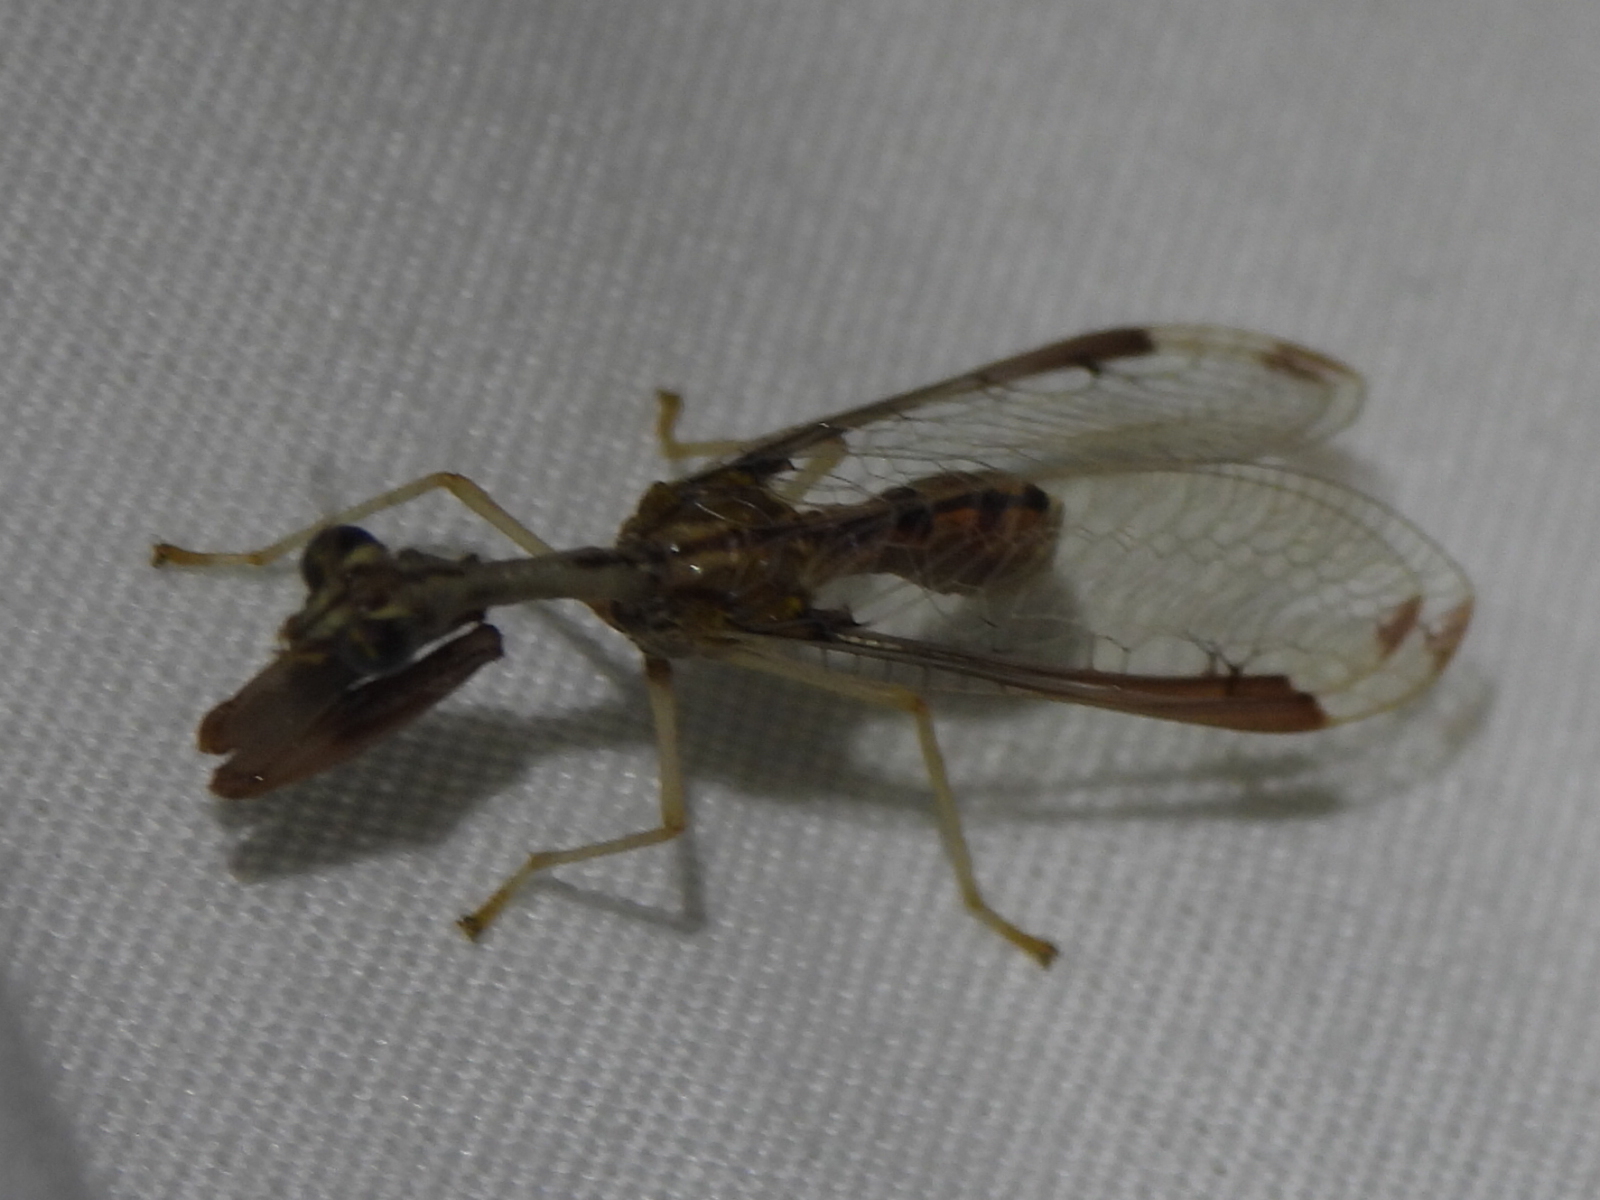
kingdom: Animalia
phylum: Arthropoda
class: Insecta
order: Neuroptera
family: Mantispidae
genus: Dicromantispa
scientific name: Dicromantispa interrupta
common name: Four-spotted mantidfly
